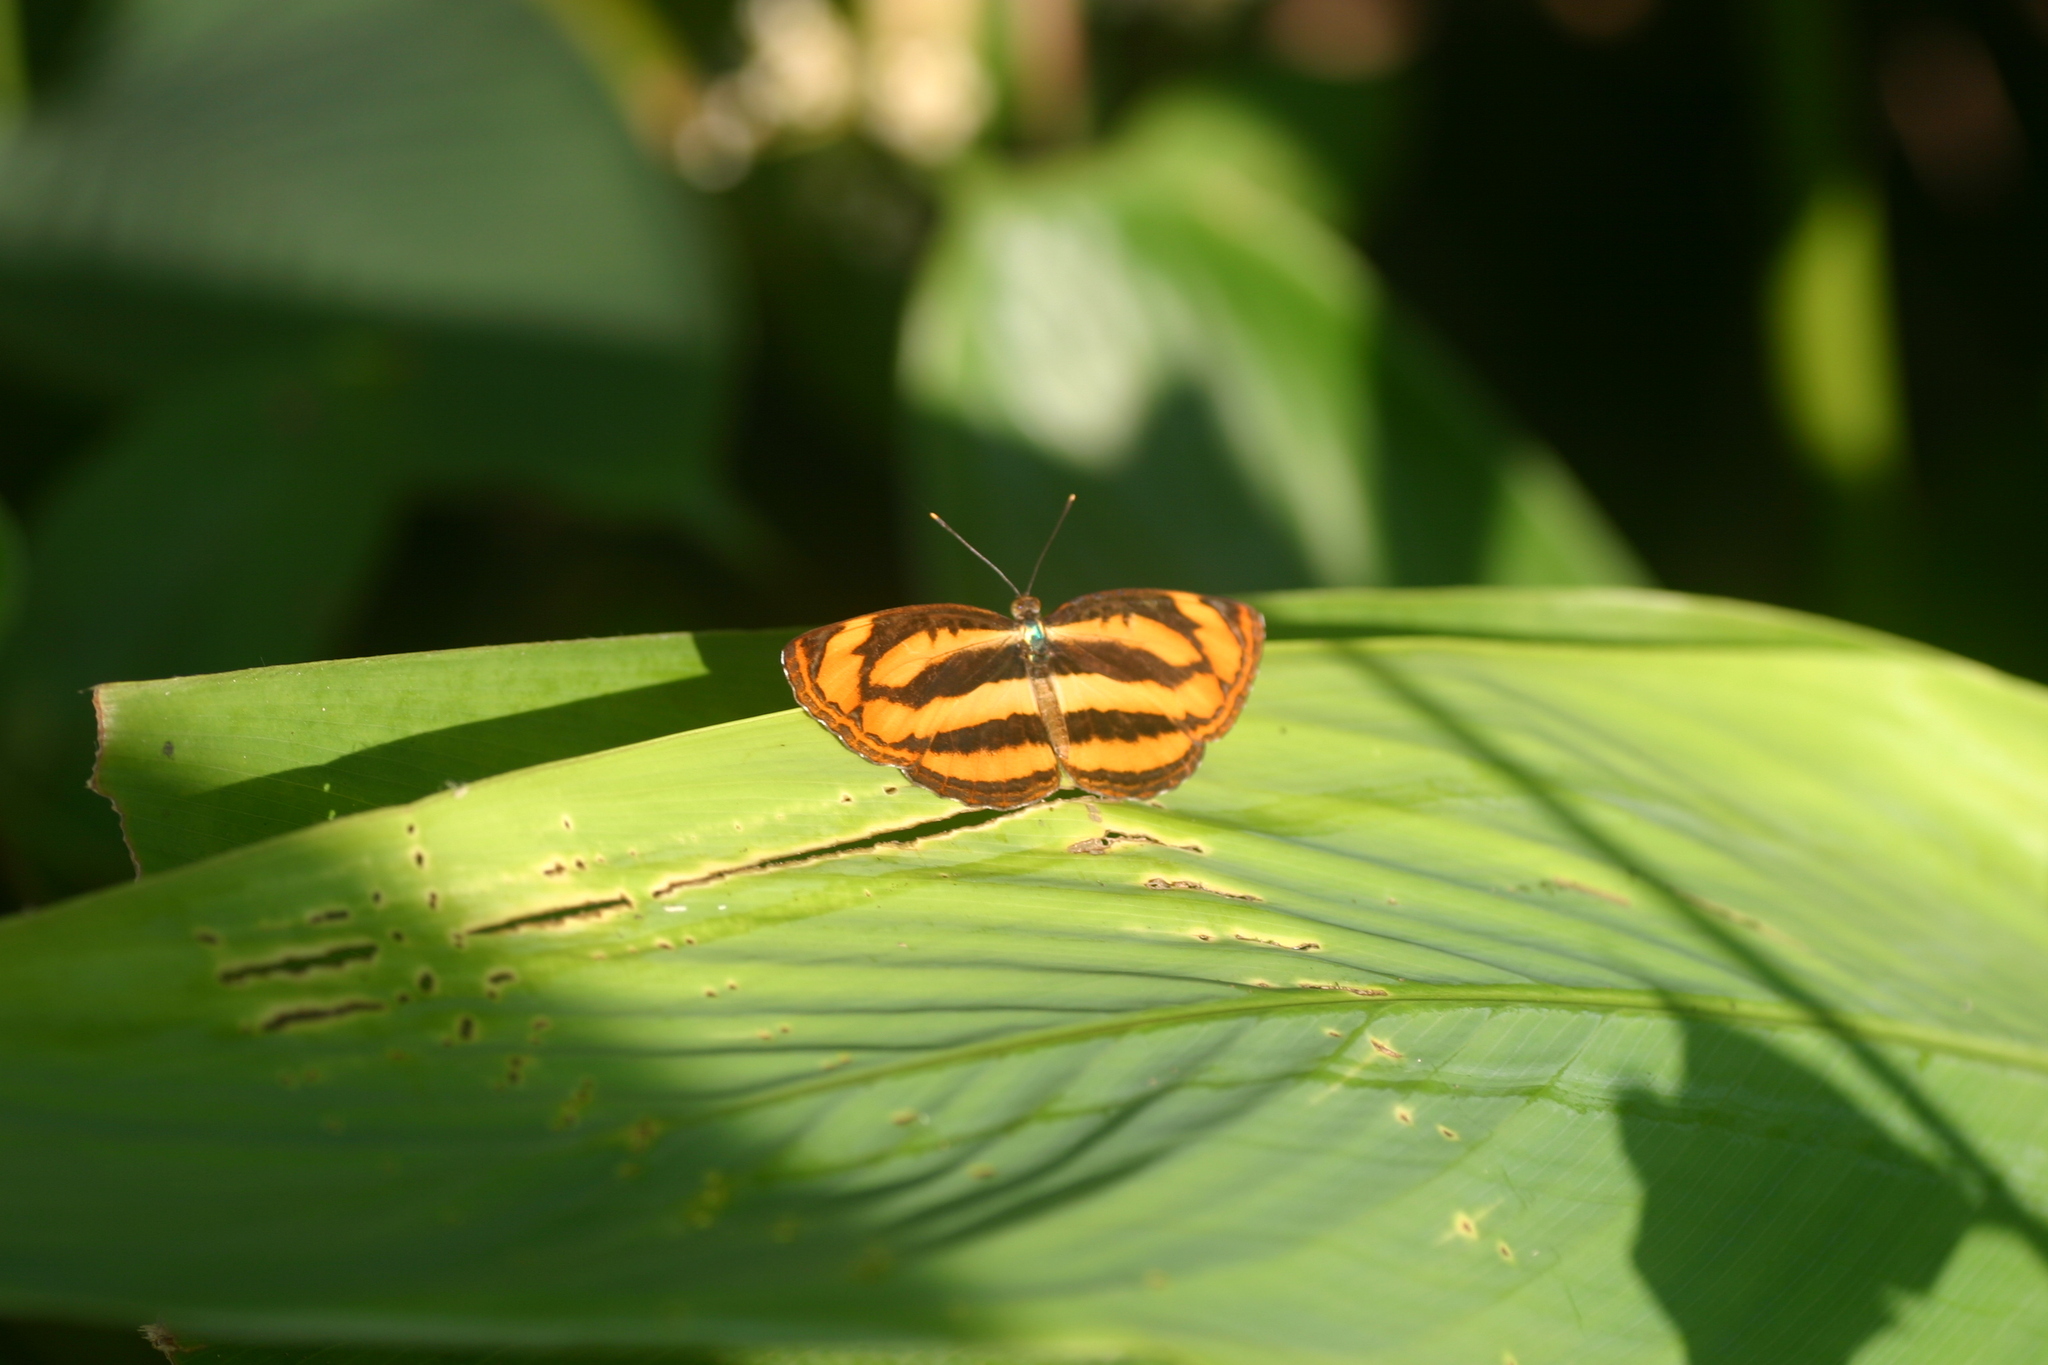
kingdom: Animalia
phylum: Arthropoda
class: Insecta
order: Lepidoptera
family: Nymphalidae
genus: Pantoporia
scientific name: Pantoporia hordonia
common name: Common lascar
